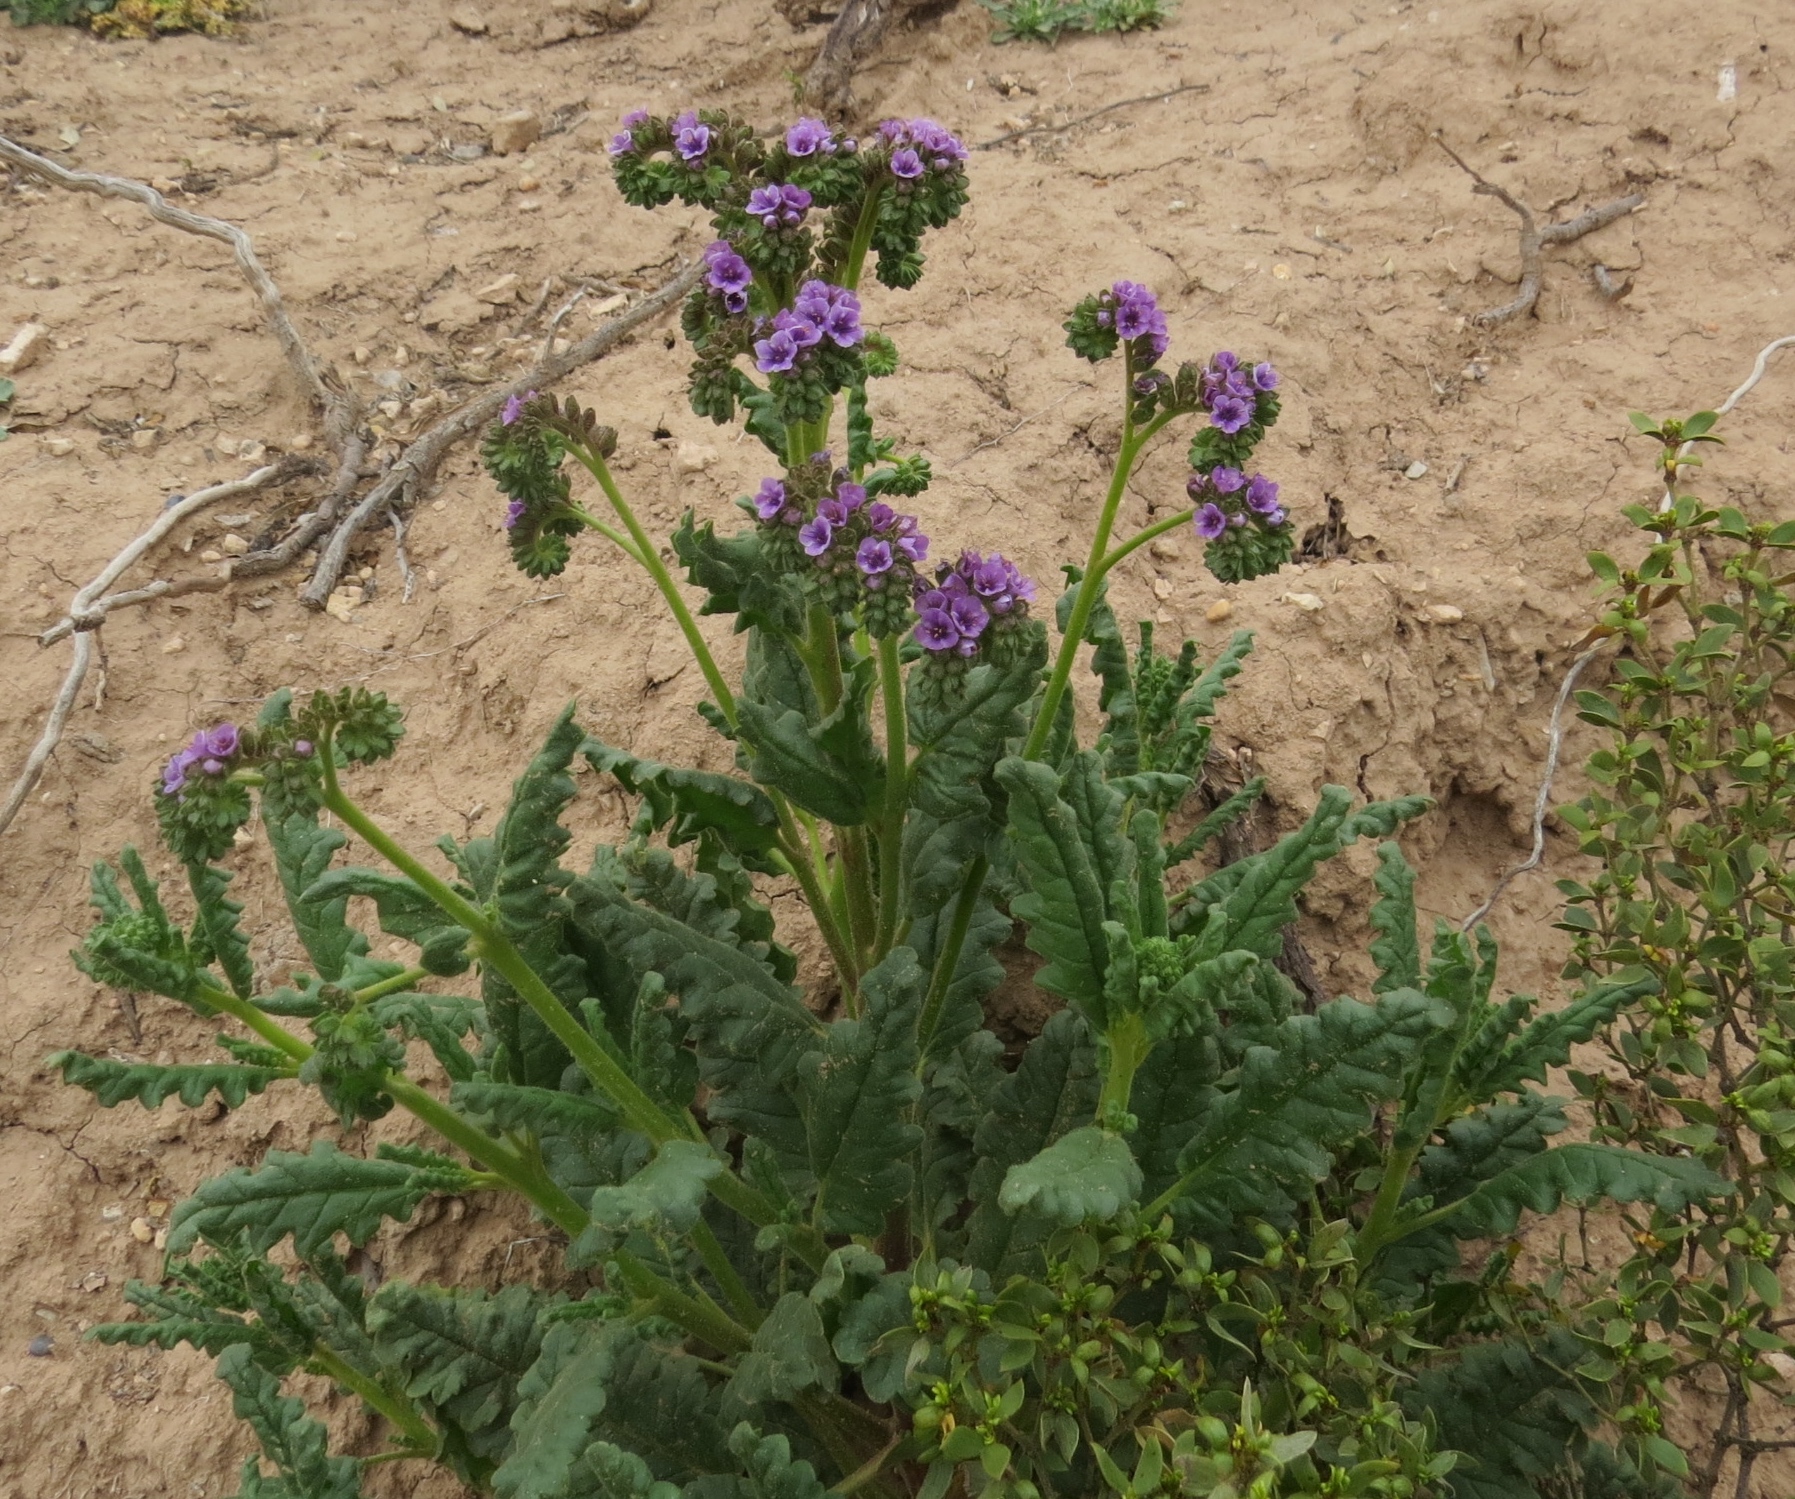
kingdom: Plantae
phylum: Tracheophyta
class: Magnoliopsida
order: Boraginales
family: Hydrophyllaceae
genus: Phacelia
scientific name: Phacelia integrifolia
